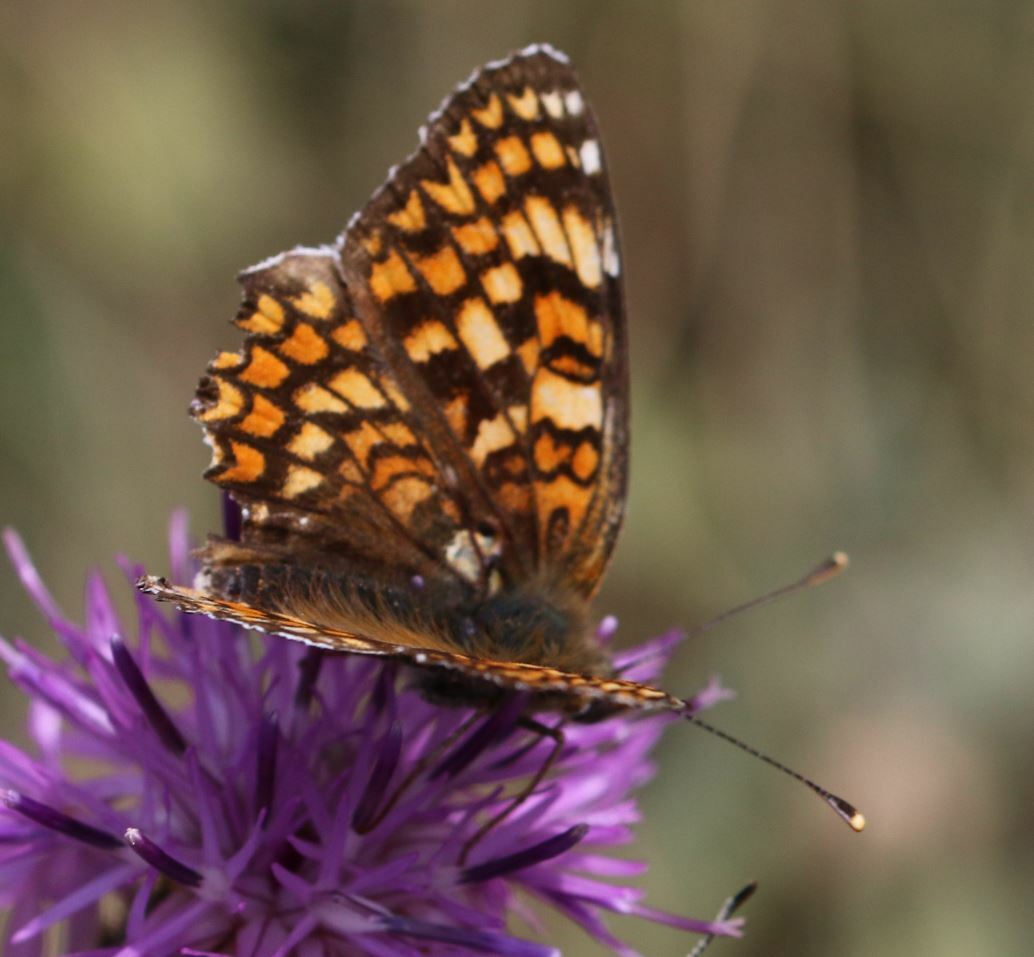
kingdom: Animalia
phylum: Arthropoda
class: Insecta
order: Lepidoptera
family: Nymphalidae
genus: Melitaea
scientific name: Melitaea phoebe
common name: Knapweed fritillary
